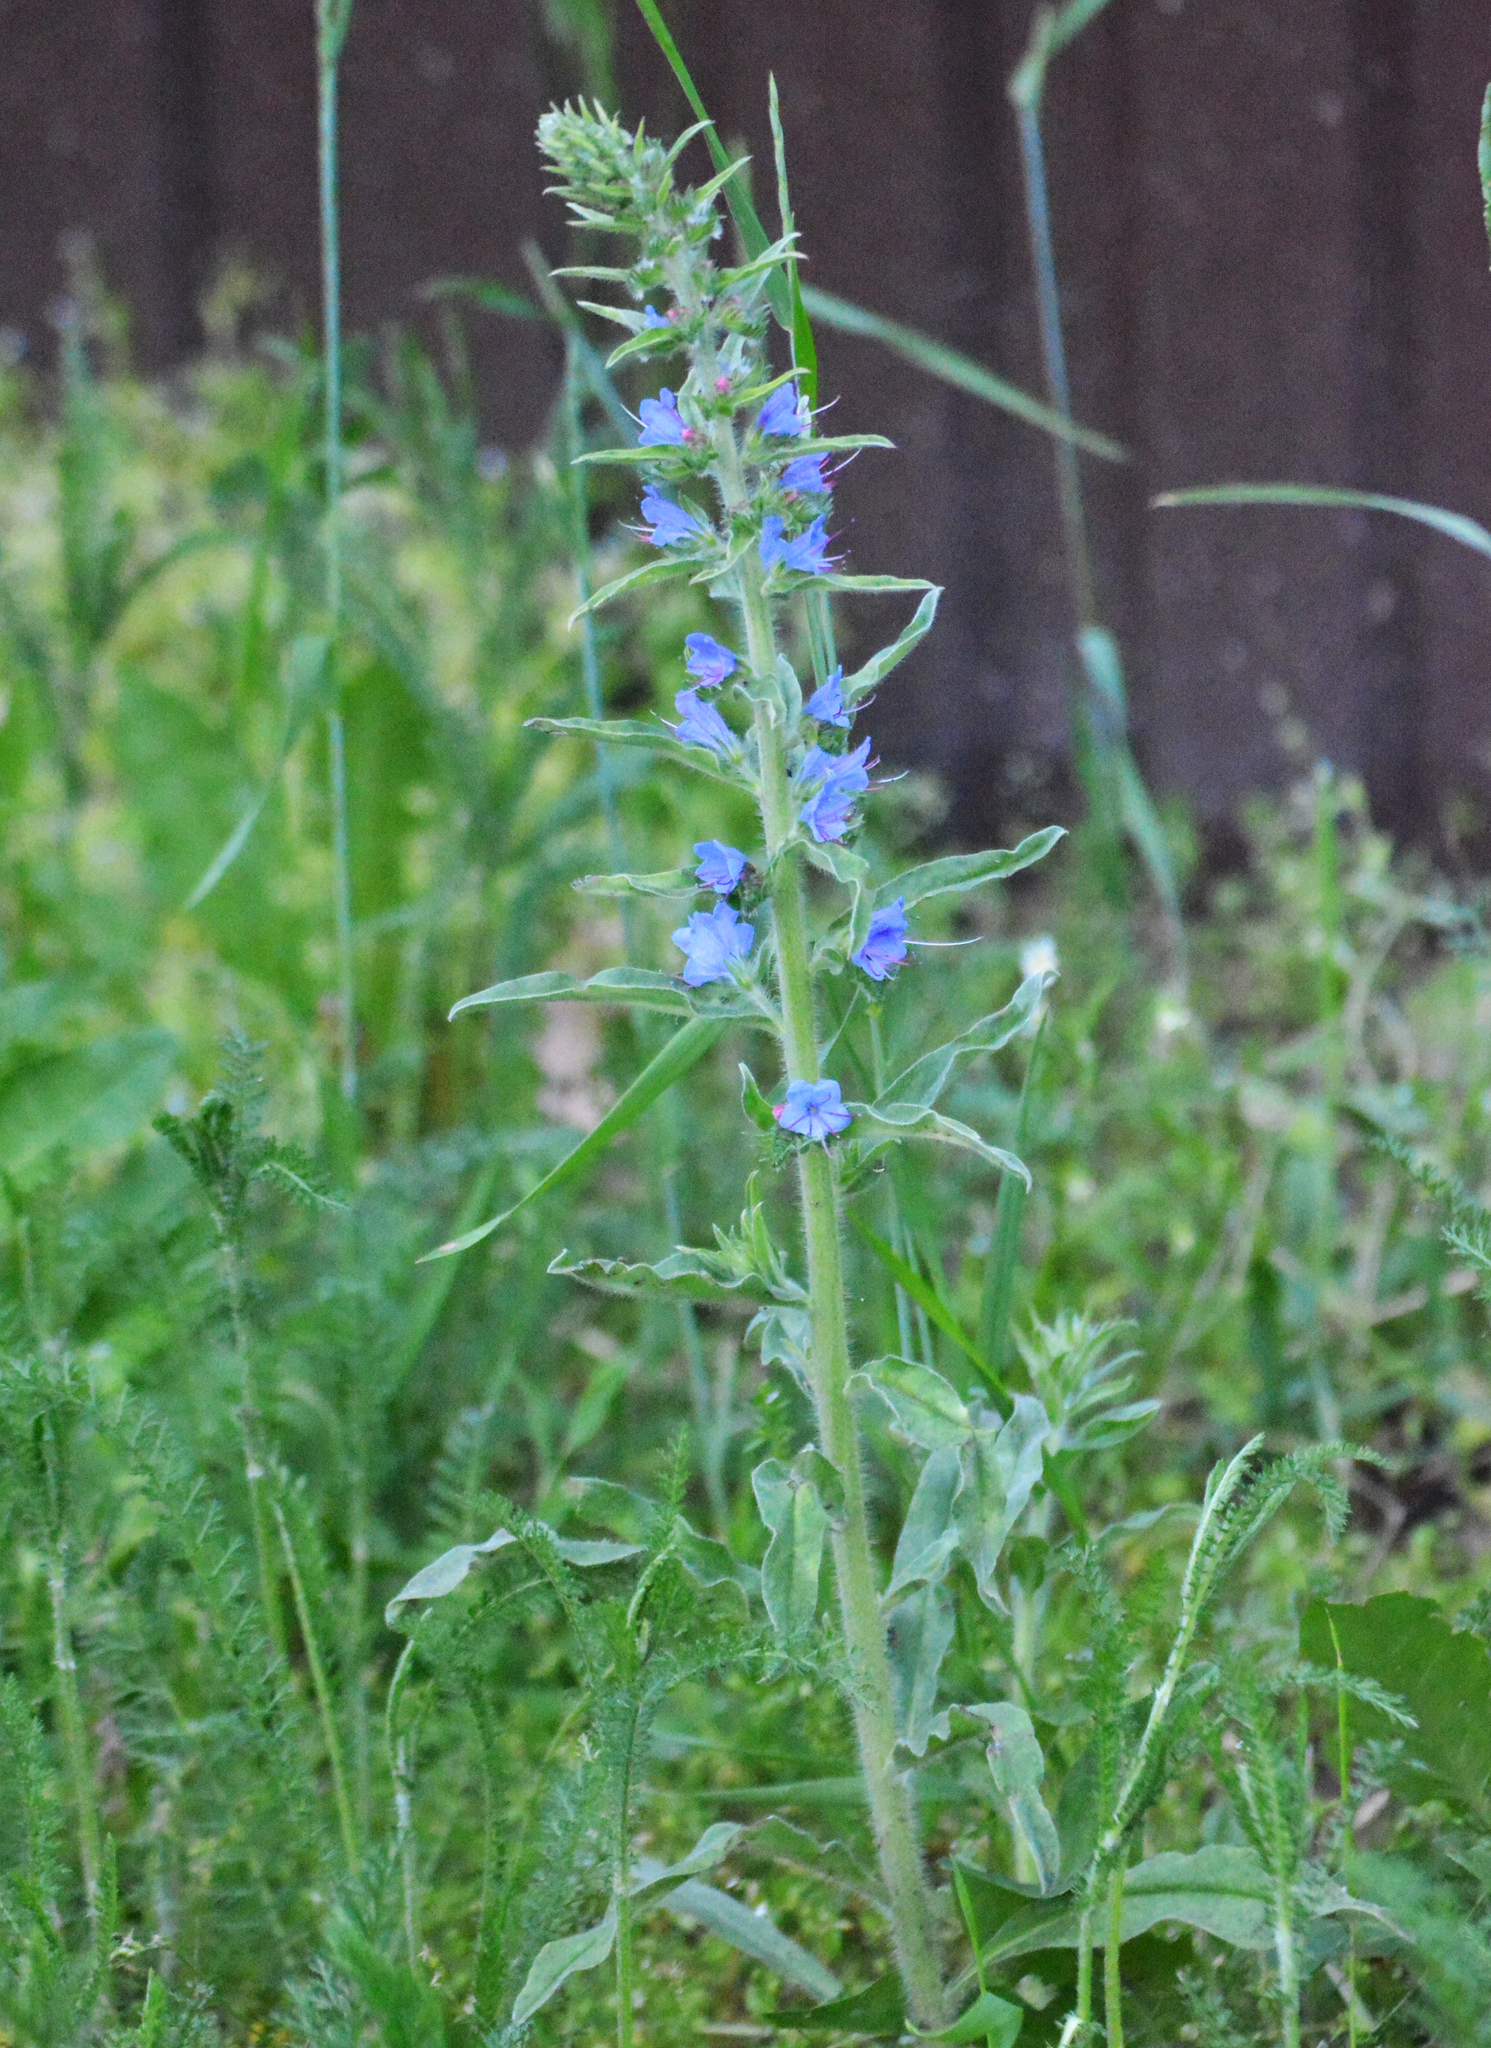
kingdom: Plantae
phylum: Tracheophyta
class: Magnoliopsida
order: Boraginales
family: Boraginaceae
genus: Echium
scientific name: Echium vulgare
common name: Common viper's bugloss
